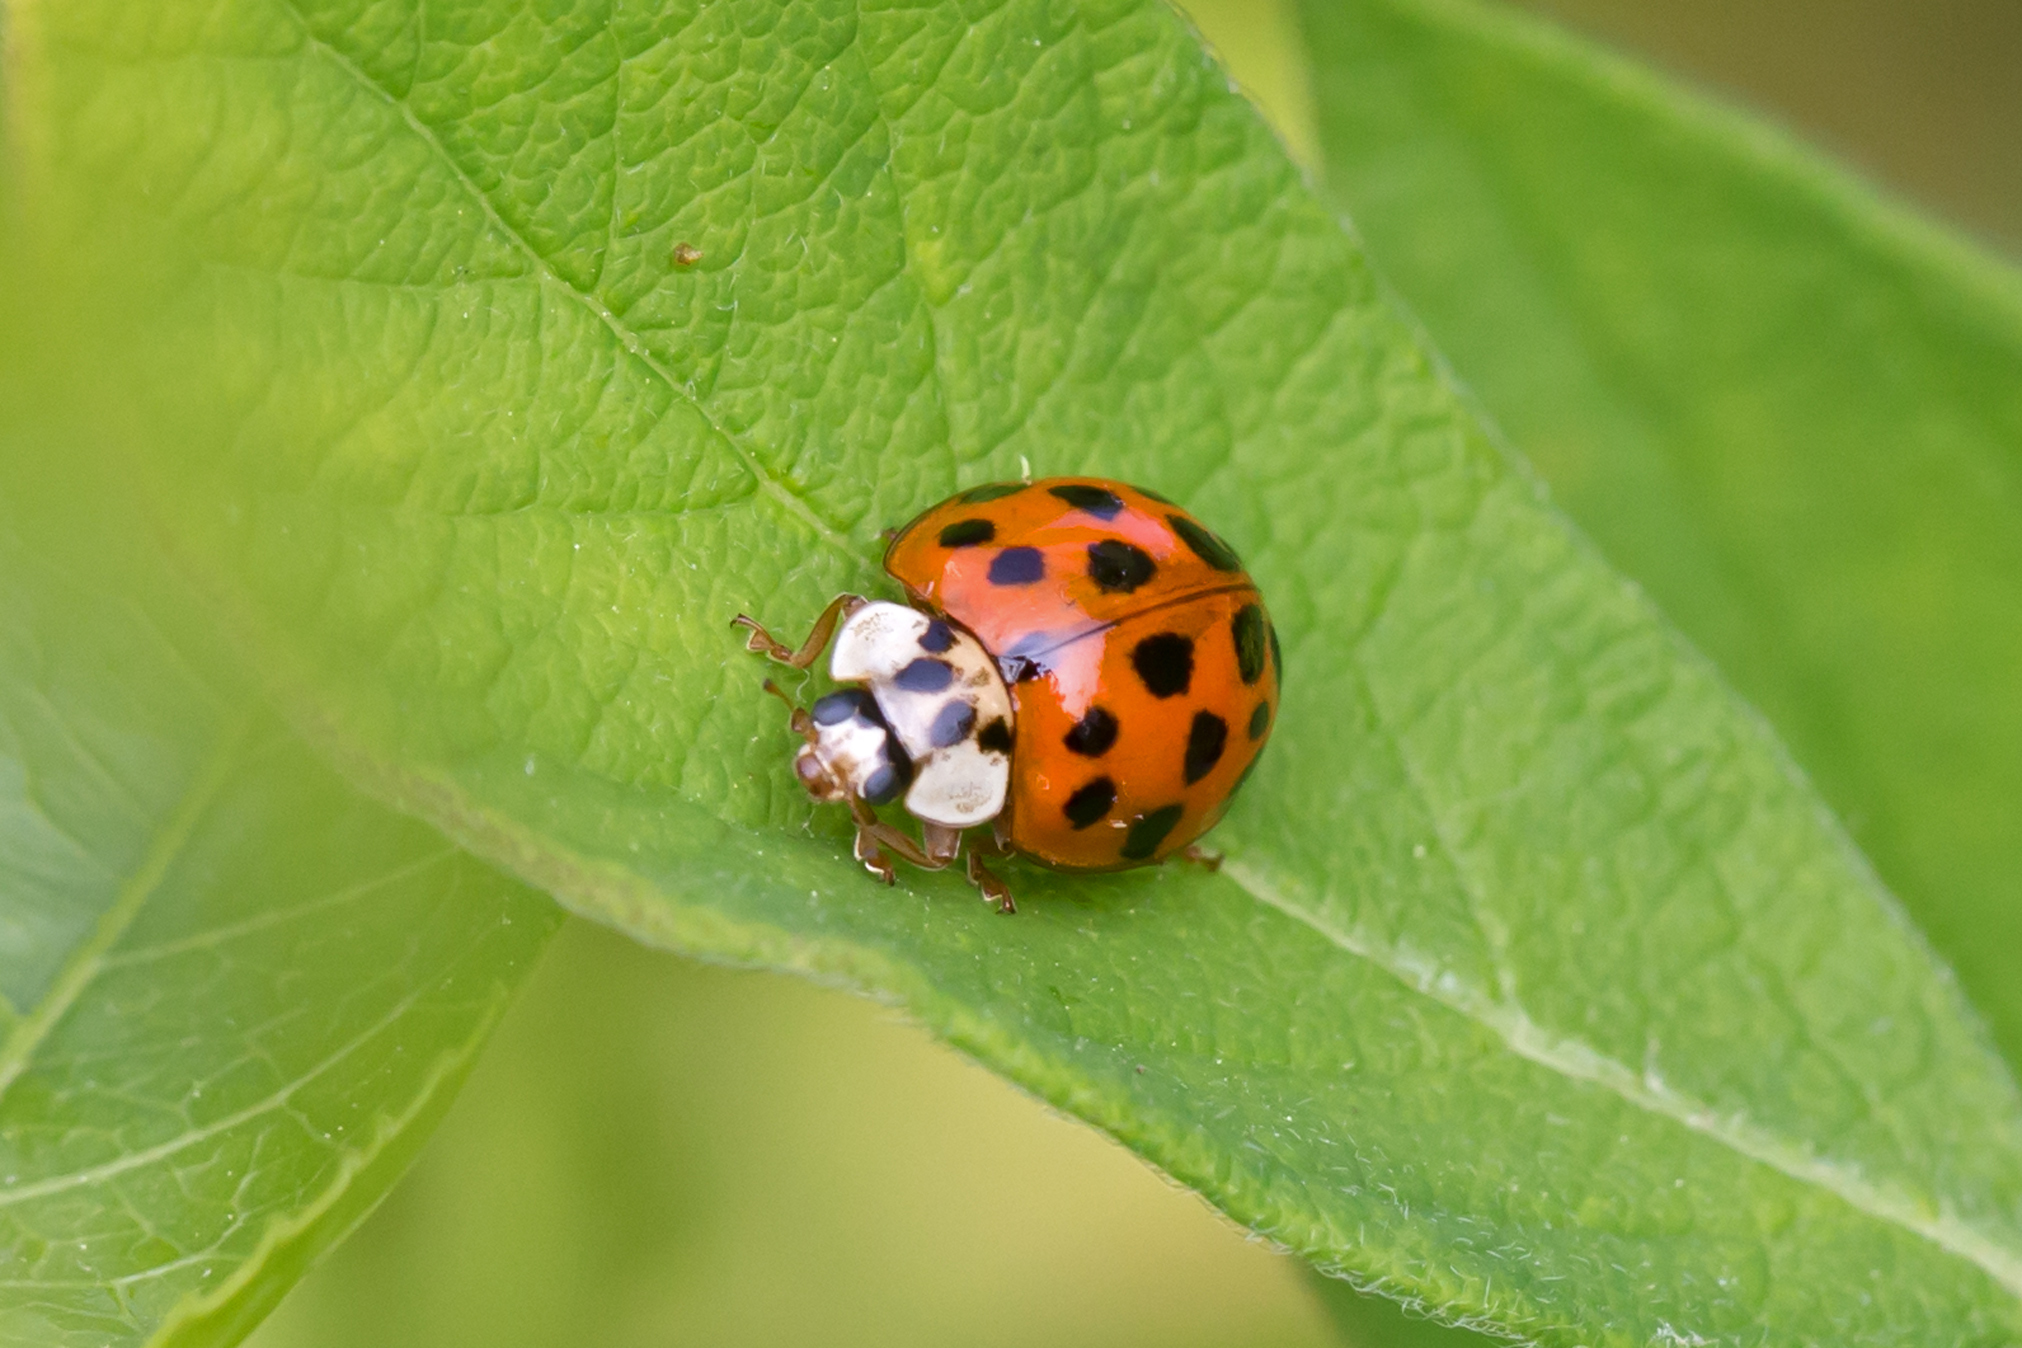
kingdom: Animalia
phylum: Arthropoda
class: Insecta
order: Coleoptera
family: Coccinellidae
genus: Harmonia
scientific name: Harmonia axyridis
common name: Harlequin ladybird
